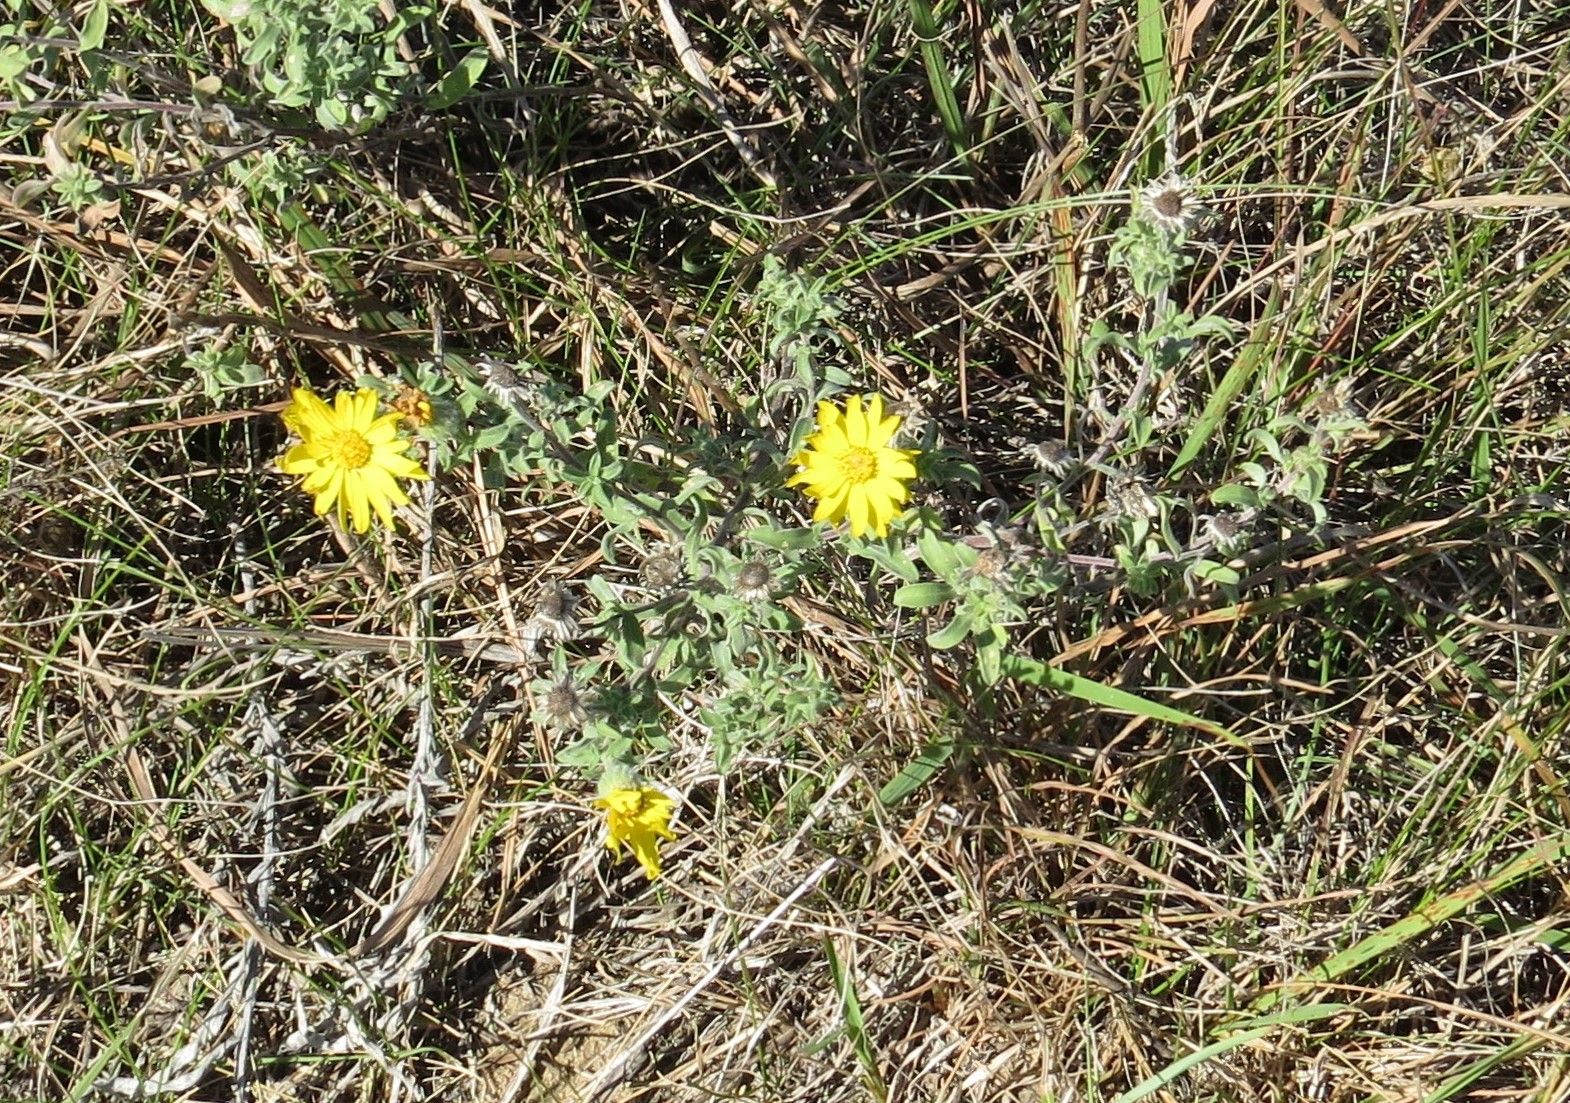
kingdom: Plantae
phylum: Tracheophyta
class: Magnoliopsida
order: Asterales
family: Asteraceae
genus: Heterotheca
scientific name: Heterotheca villosa
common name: Hairy false goldenaster
